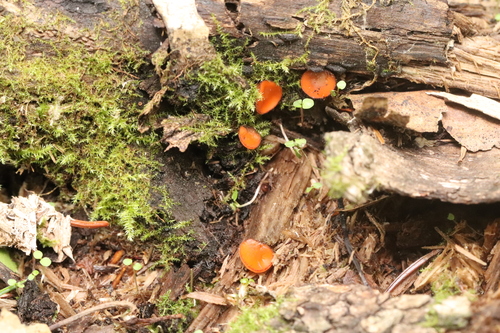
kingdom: Fungi
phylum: Ascomycota
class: Pezizomycetes
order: Pezizales
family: Pyronemataceae
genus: Scutellinia
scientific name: Scutellinia
